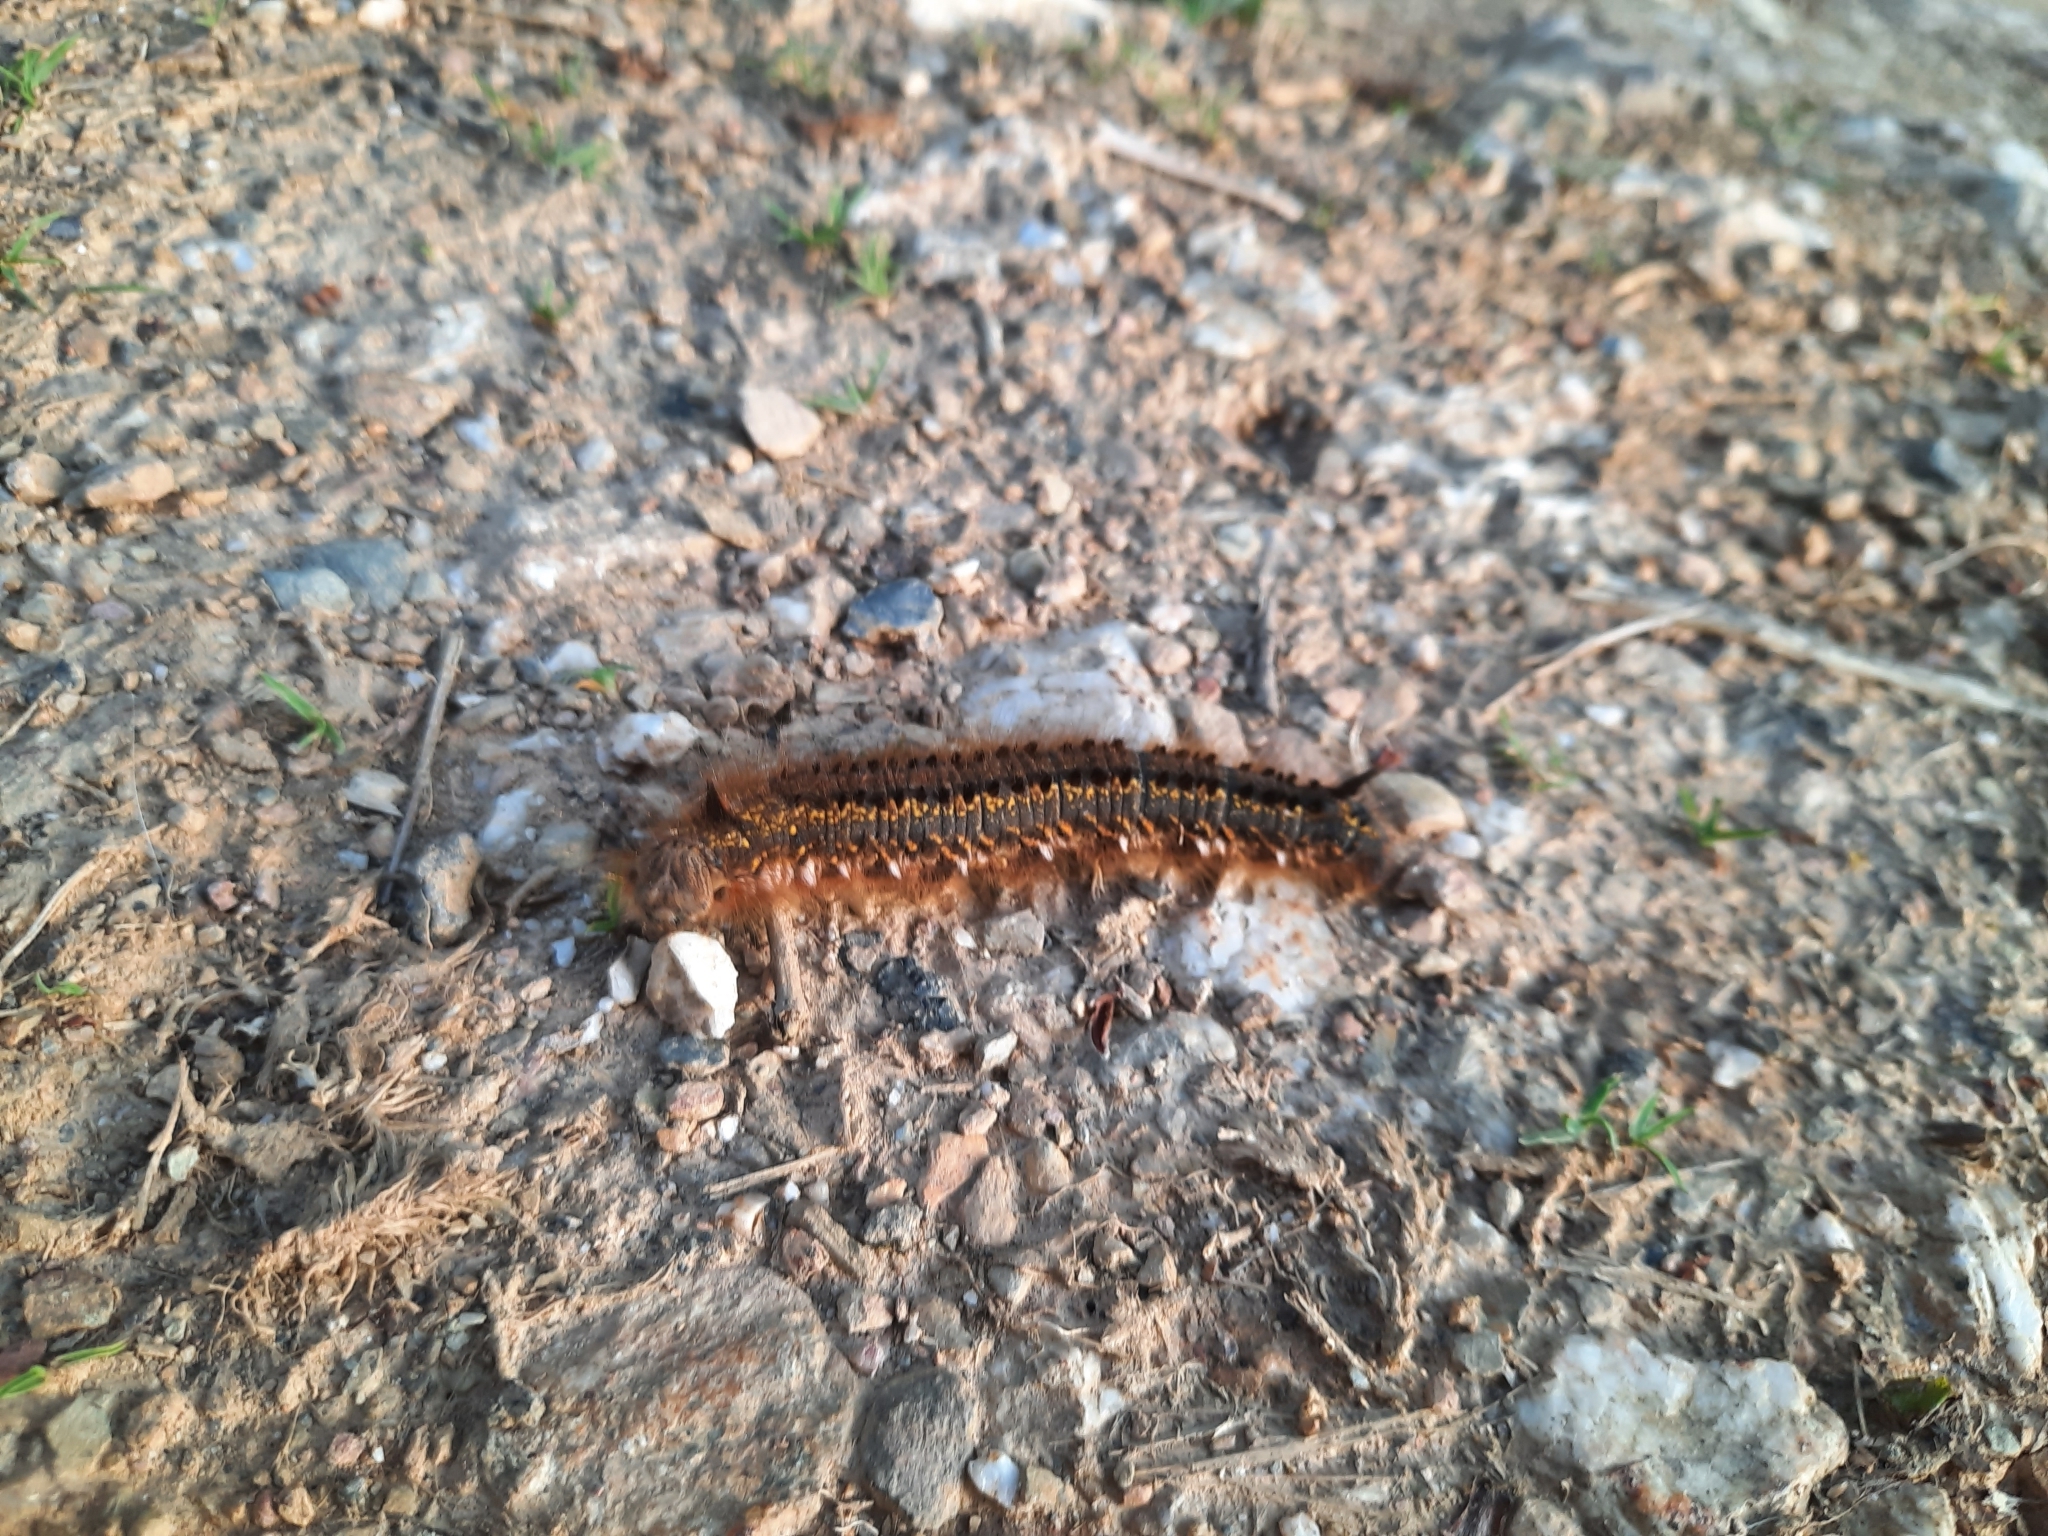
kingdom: Animalia
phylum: Arthropoda
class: Insecta
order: Lepidoptera
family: Lasiocampidae
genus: Euthrix
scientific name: Euthrix potatoria
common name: Drinker
